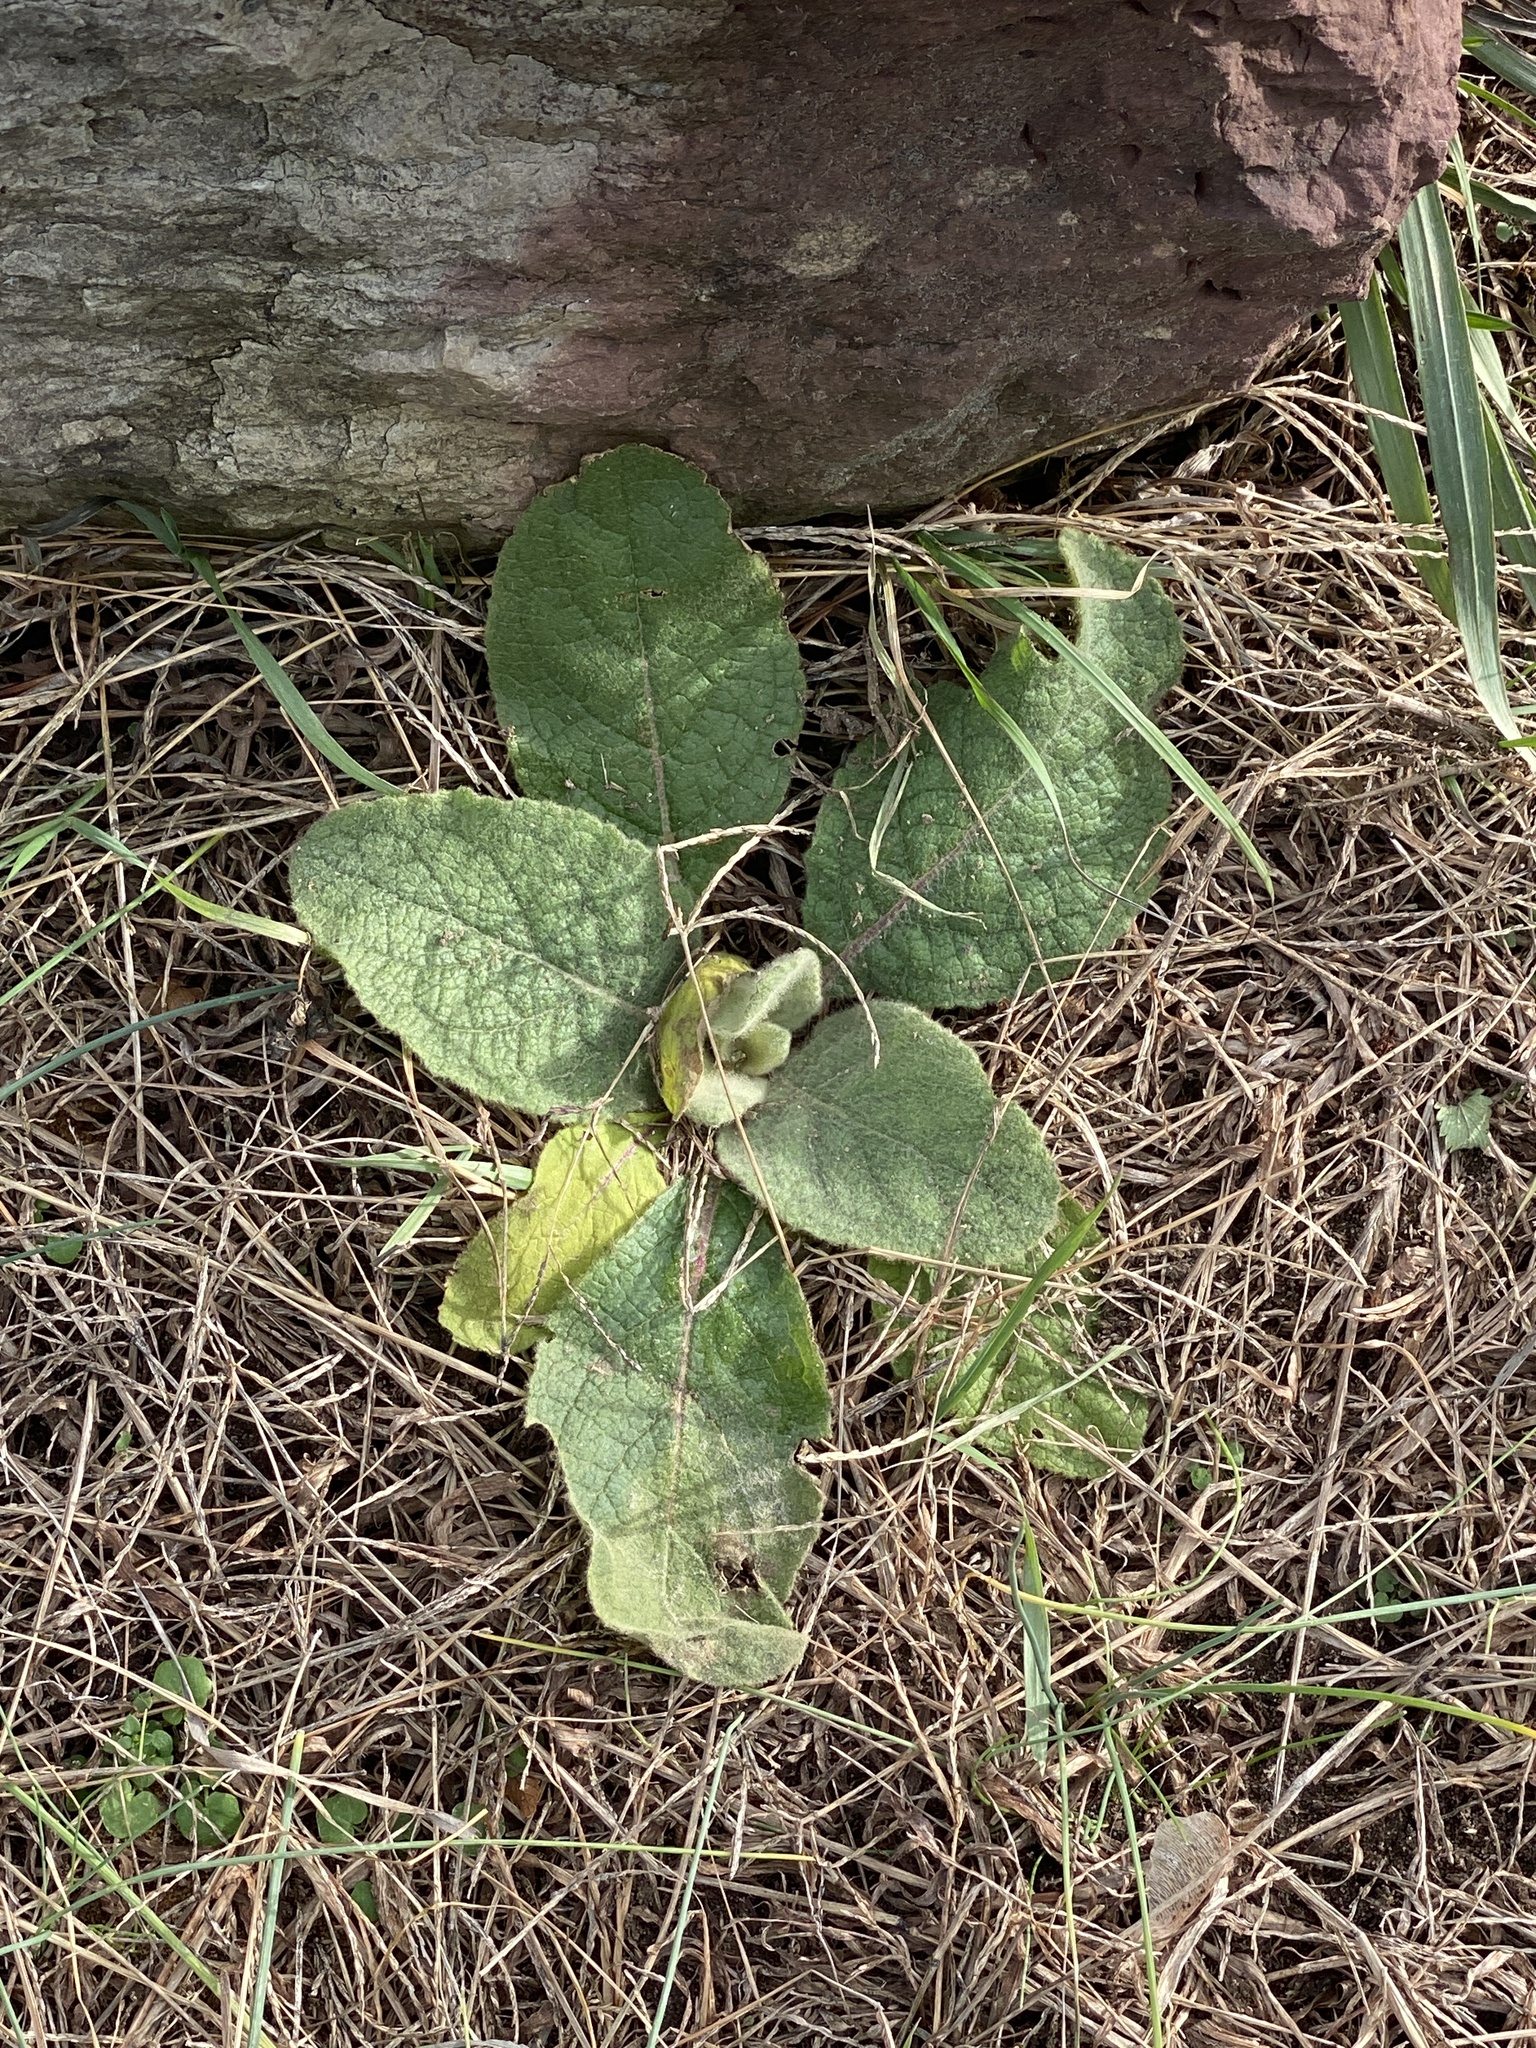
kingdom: Plantae
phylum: Tracheophyta
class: Magnoliopsida
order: Lamiales
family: Scrophulariaceae
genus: Verbascum
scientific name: Verbascum thapsus
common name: Common mullein
